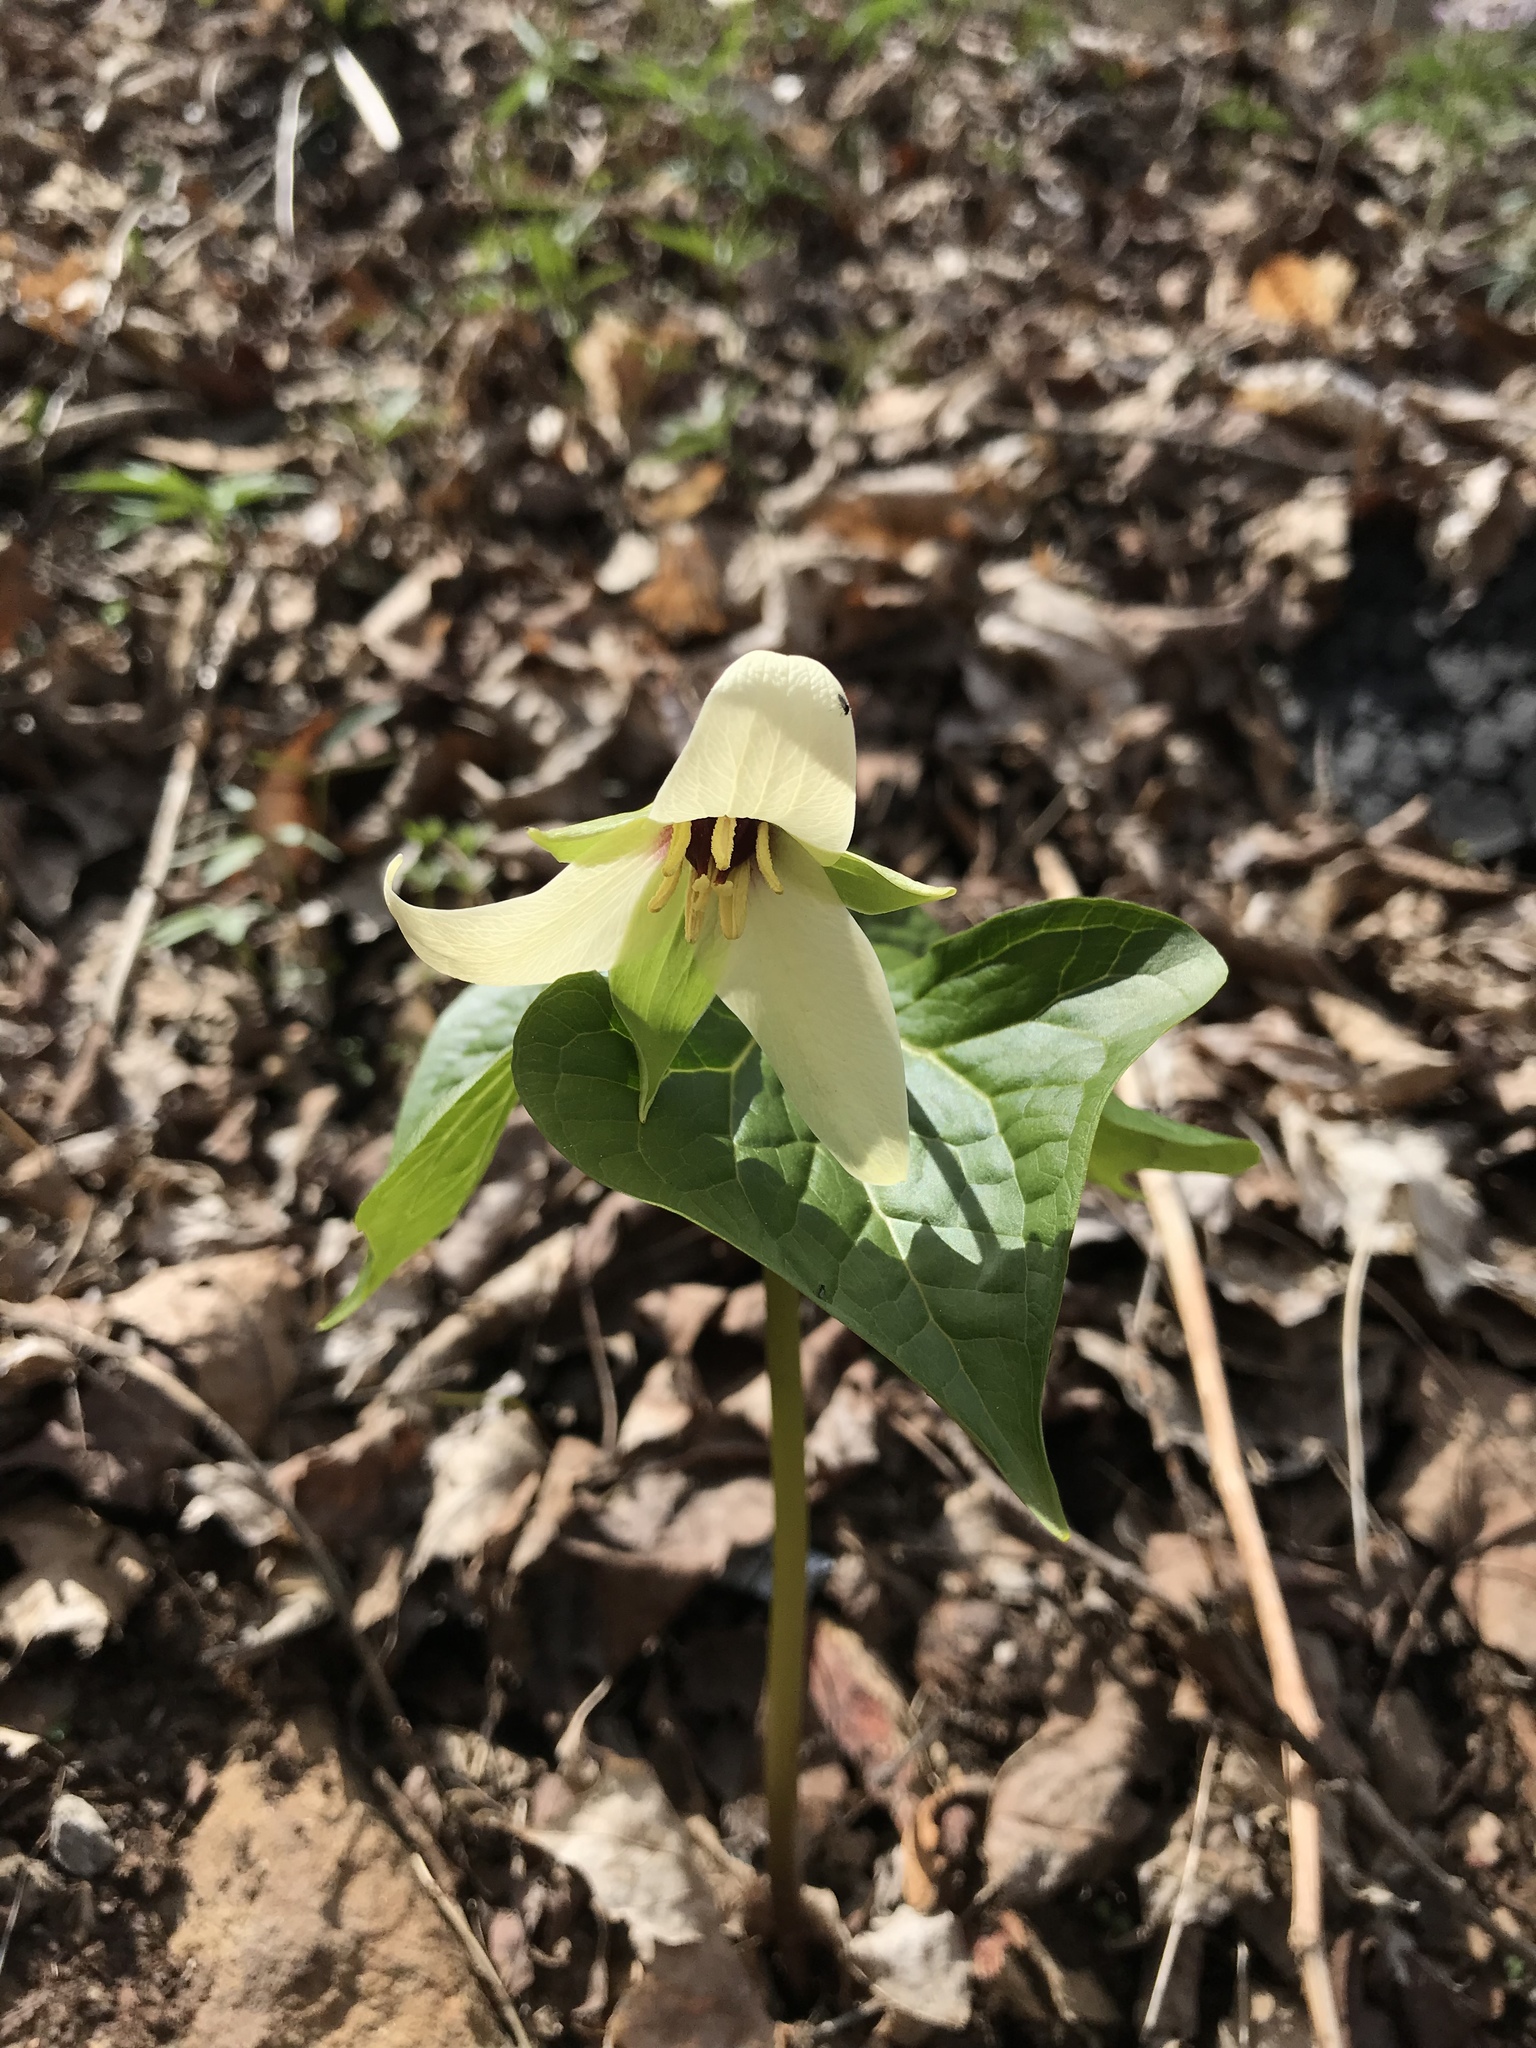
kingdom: Plantae
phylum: Tracheophyta
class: Liliopsida
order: Liliales
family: Melanthiaceae
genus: Trillium
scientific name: Trillium erectum
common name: Purple trillium
